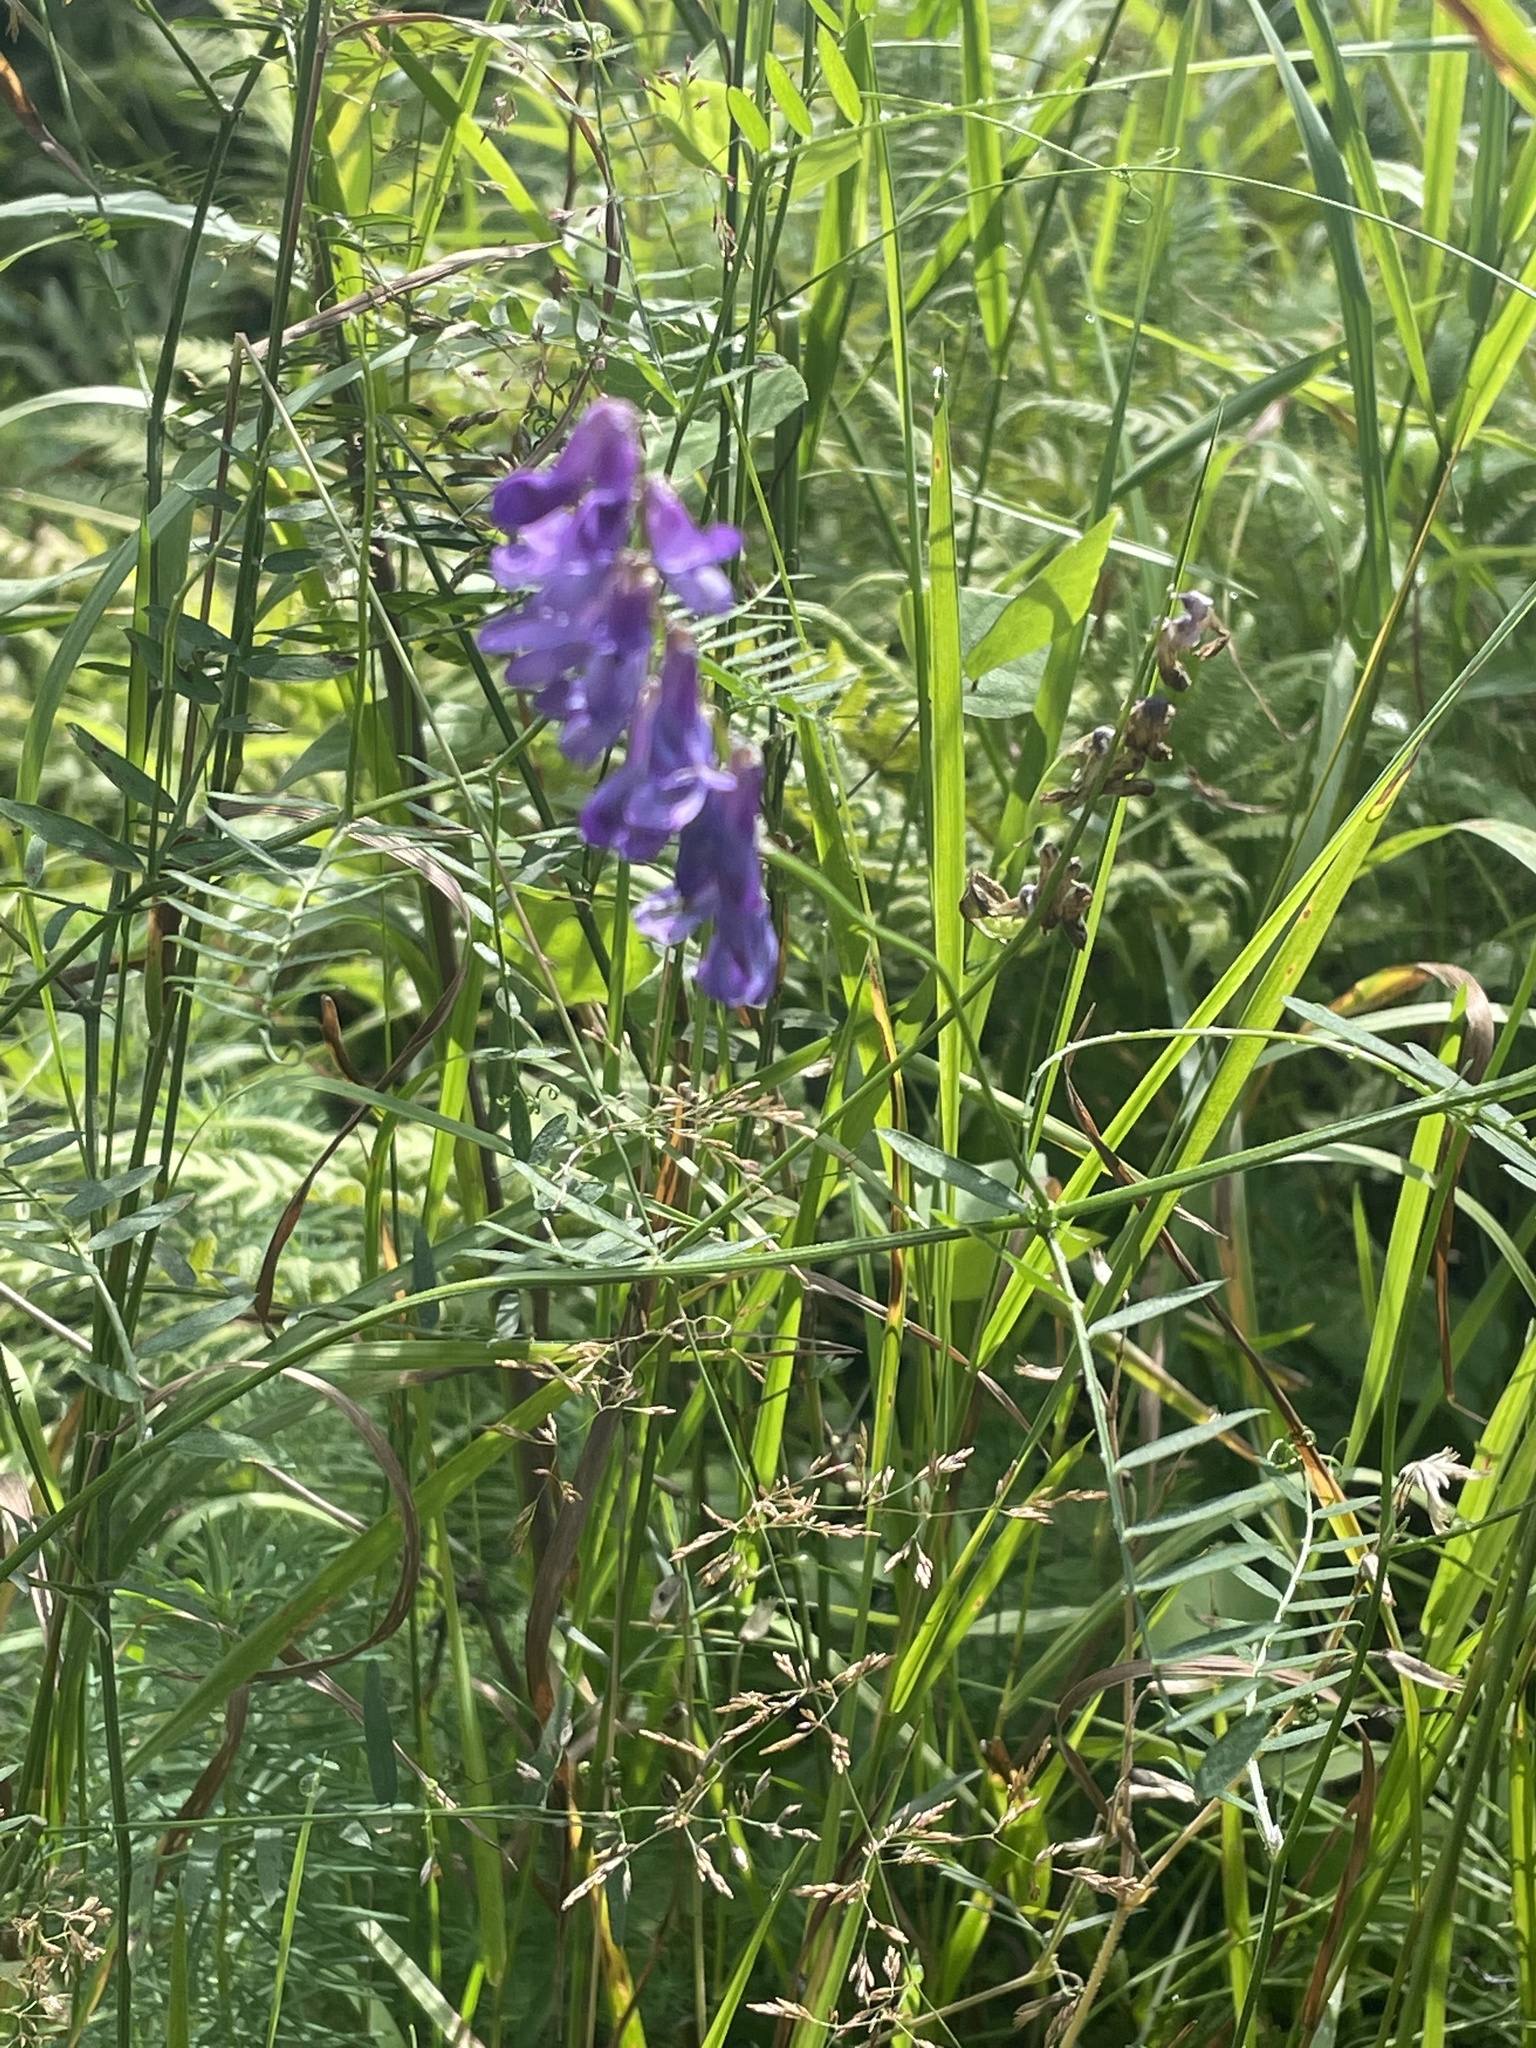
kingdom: Plantae
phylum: Tracheophyta
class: Magnoliopsida
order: Fabales
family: Fabaceae
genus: Vicia
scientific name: Vicia cracca
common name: Bird vetch
